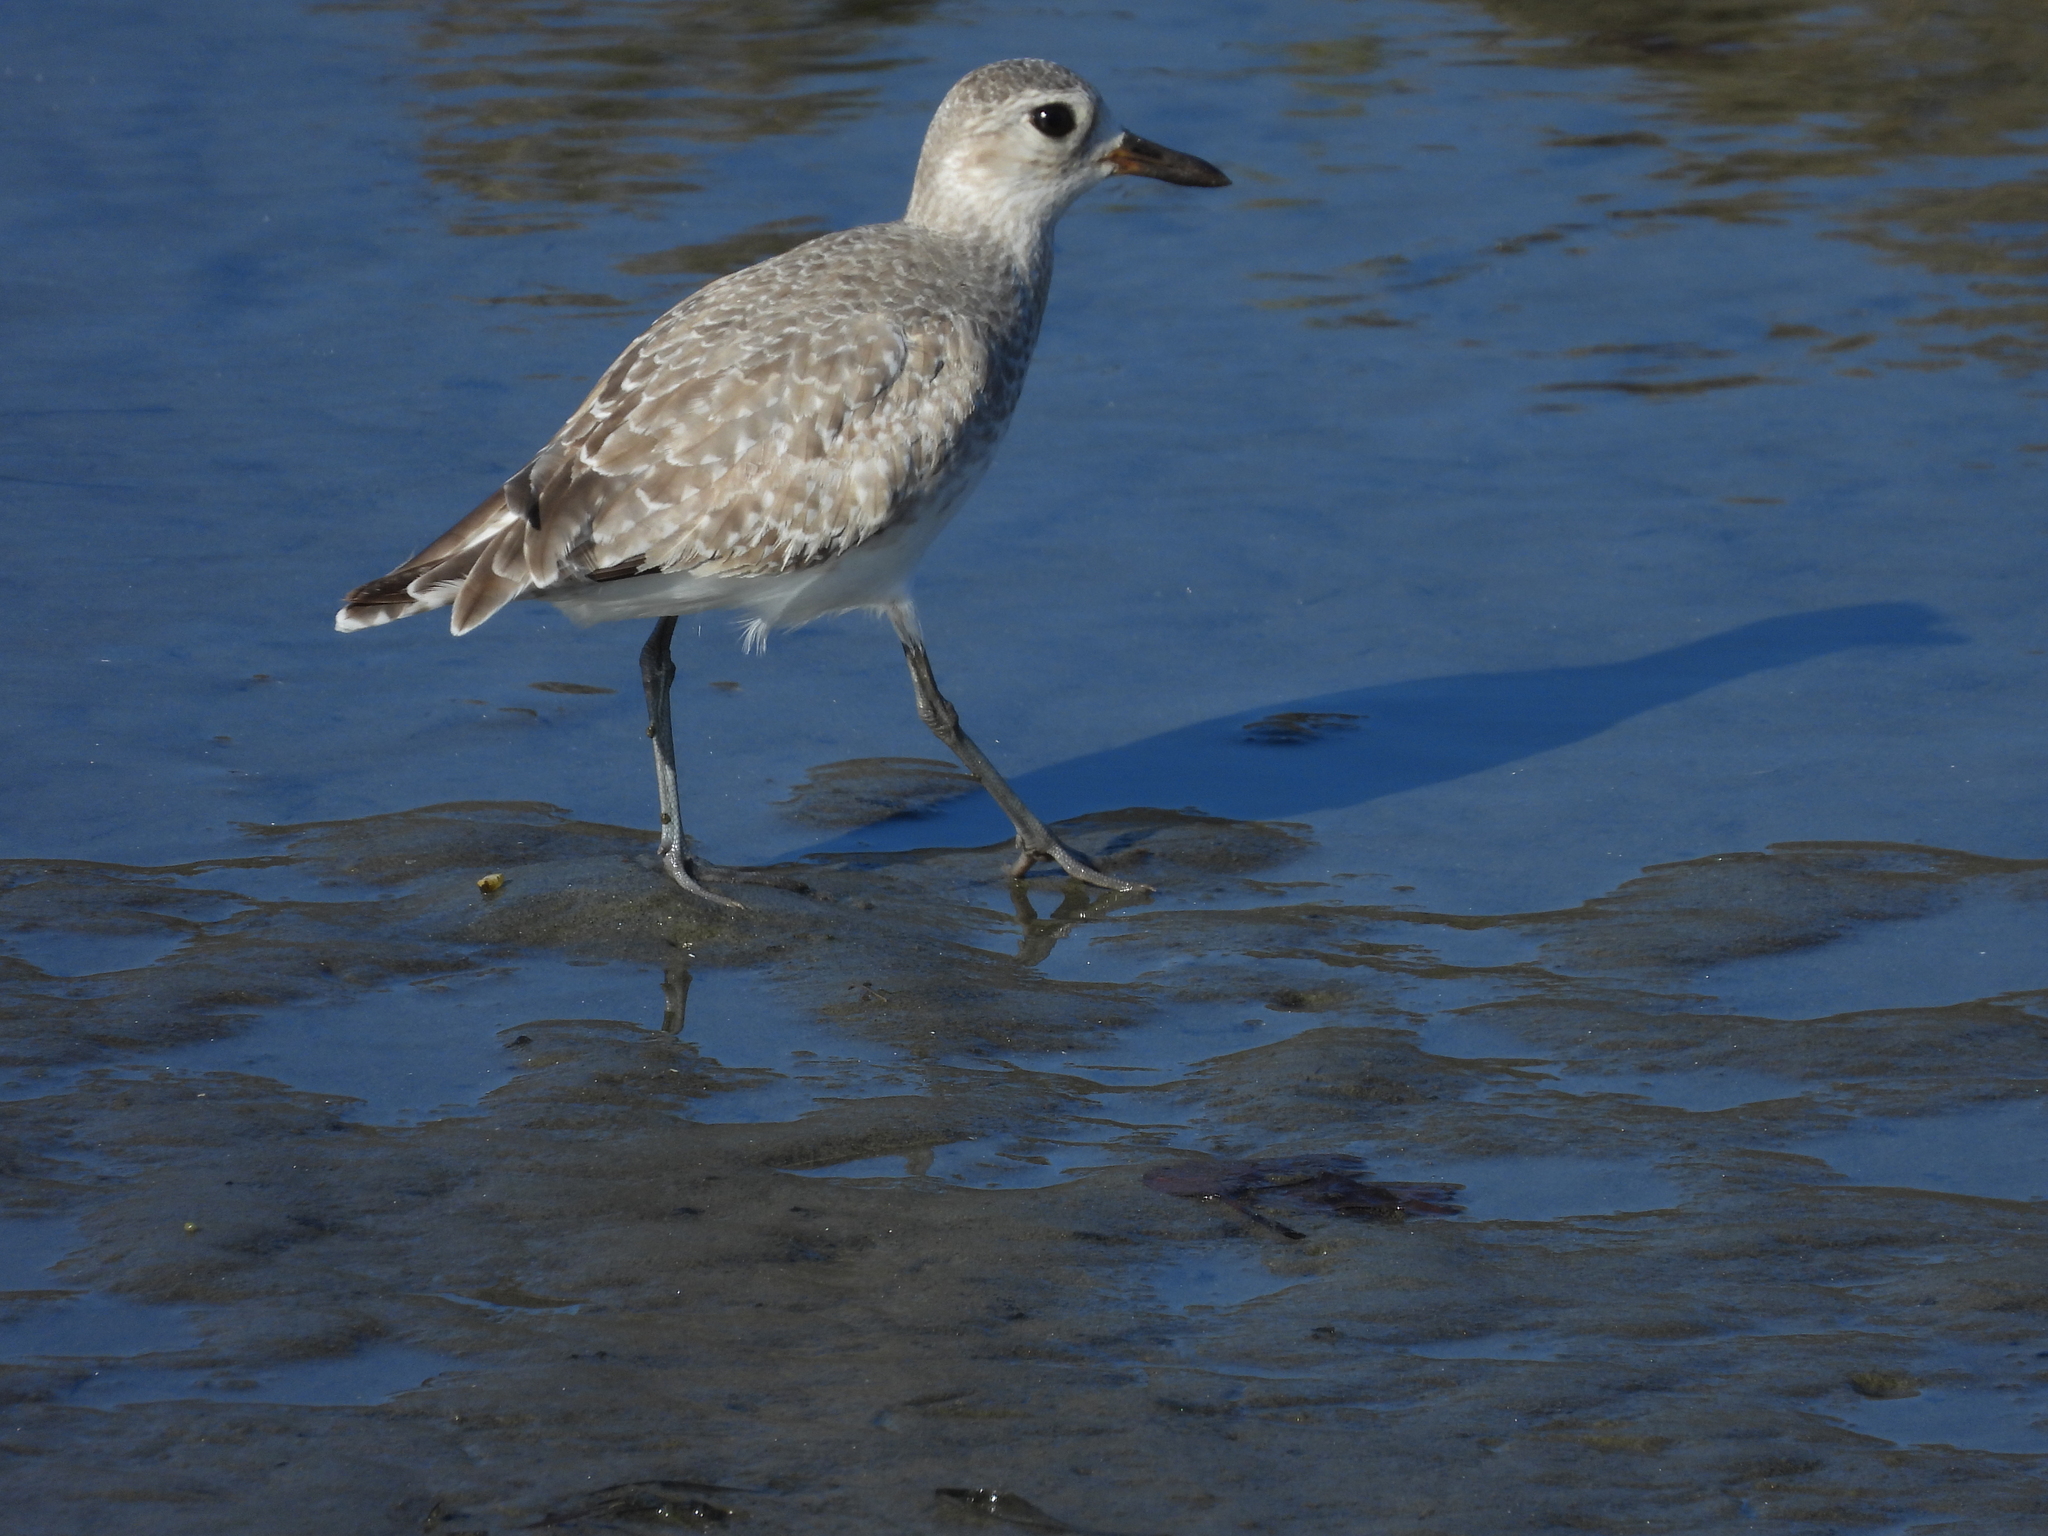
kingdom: Animalia
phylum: Chordata
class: Aves
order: Charadriiformes
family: Charadriidae
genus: Pluvialis
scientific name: Pluvialis squatarola
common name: Grey plover
